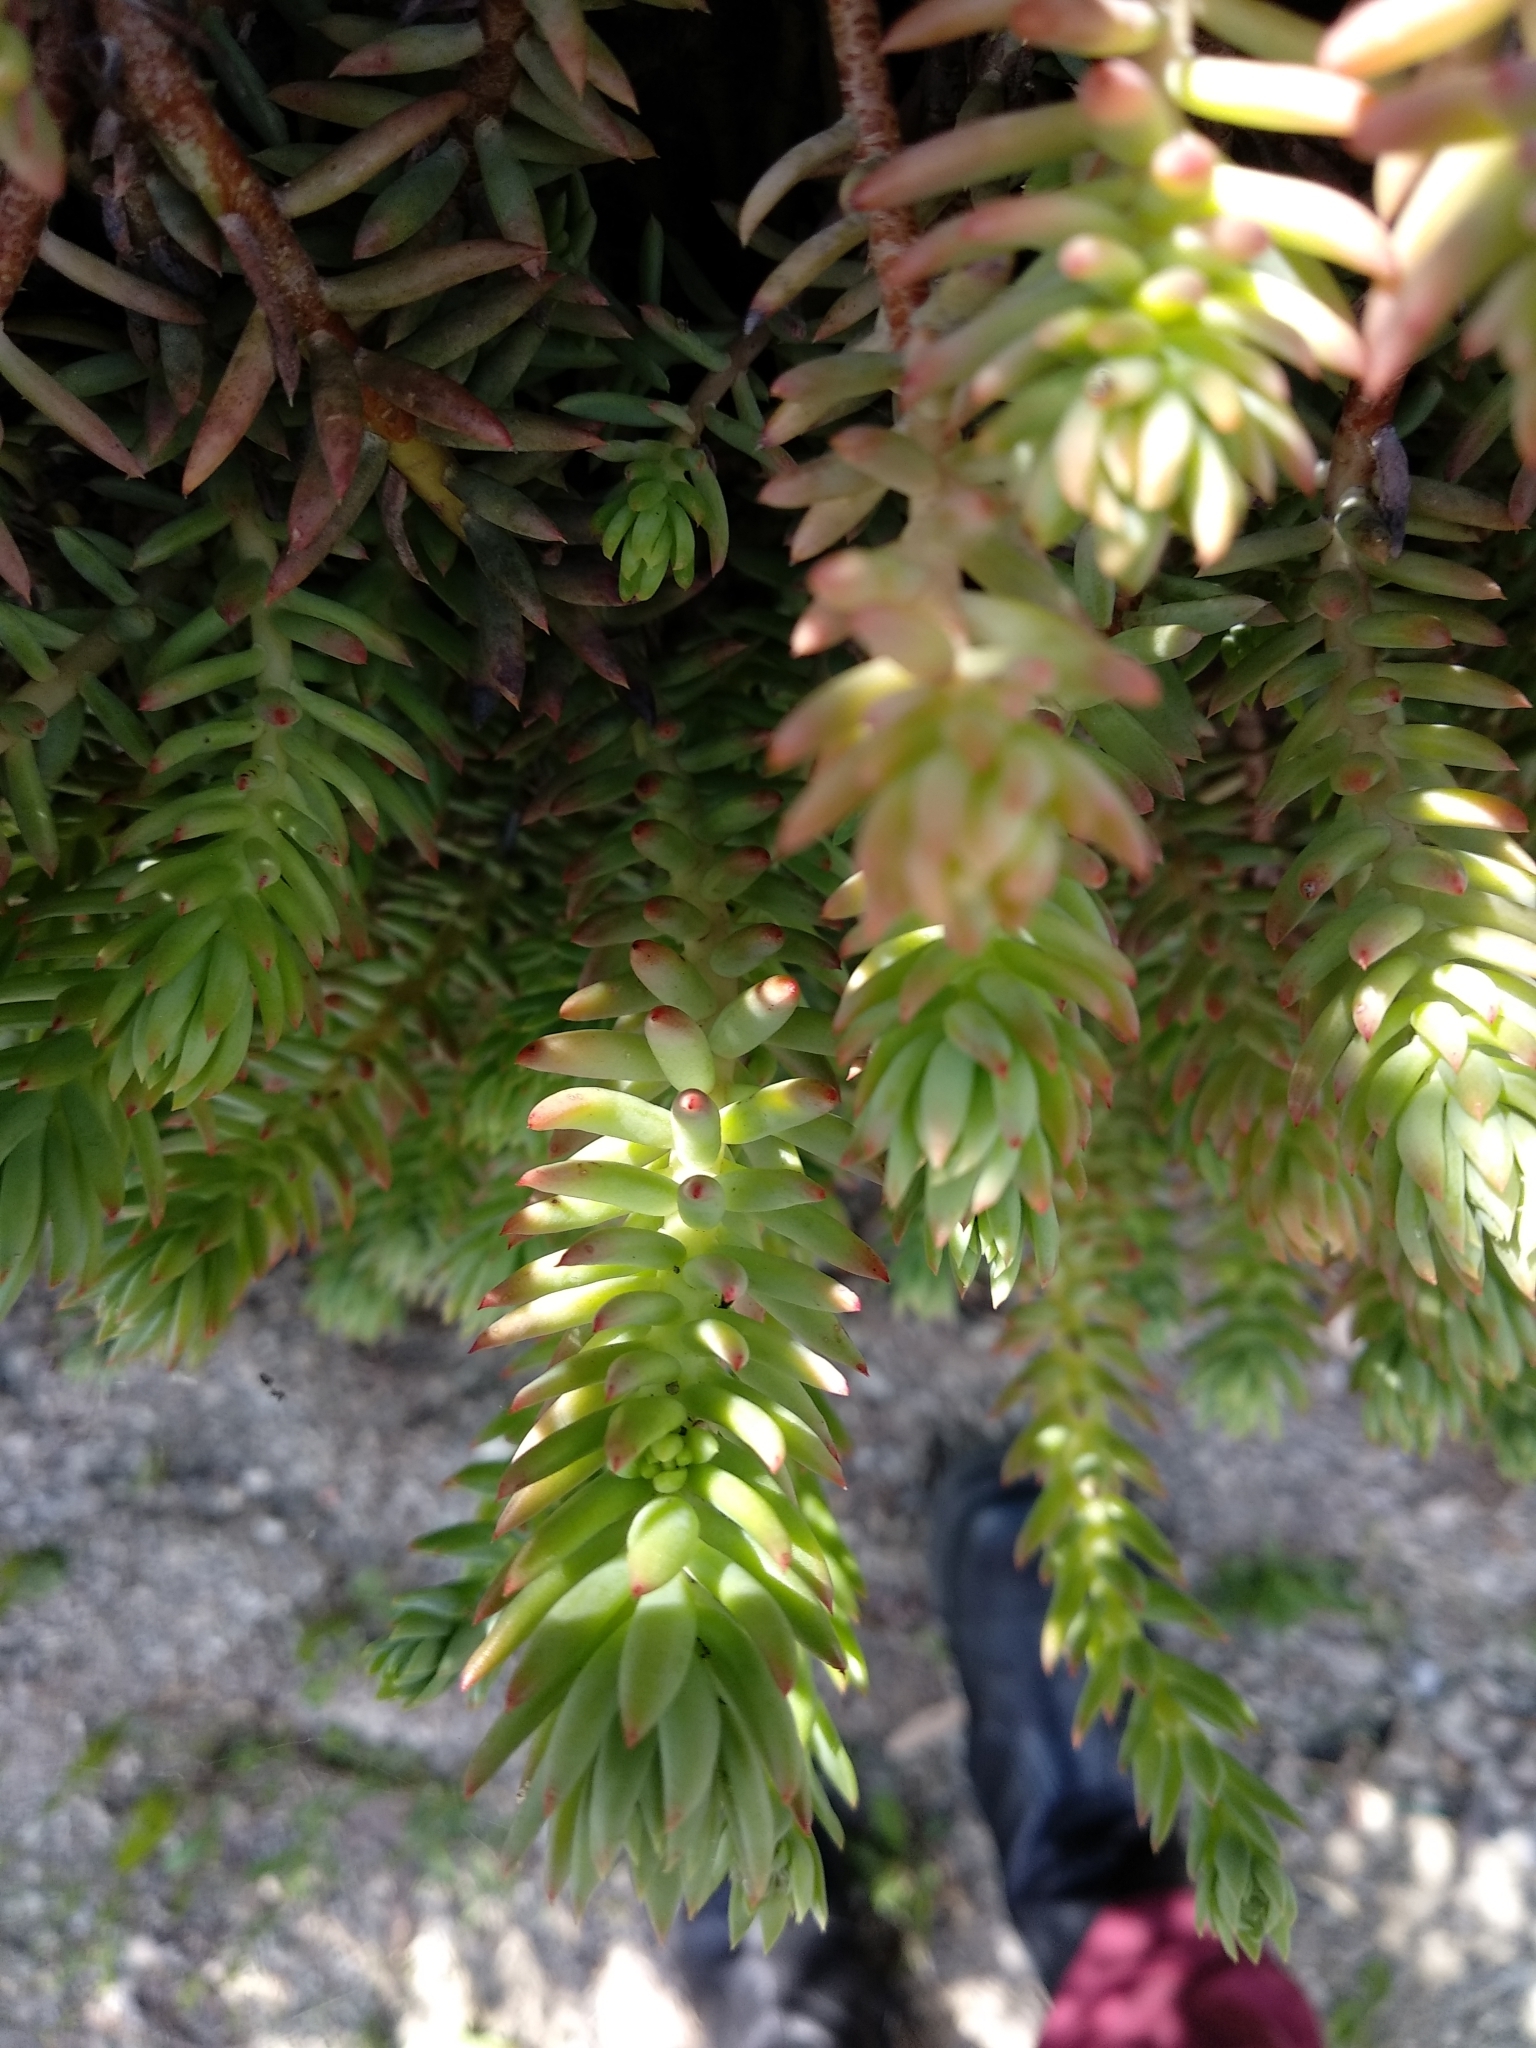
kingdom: Plantae
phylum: Tracheophyta
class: Magnoliopsida
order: Saxifragales
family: Crassulaceae
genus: Petrosedum
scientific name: Petrosedum rupestre
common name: Jenny's stonecrop
